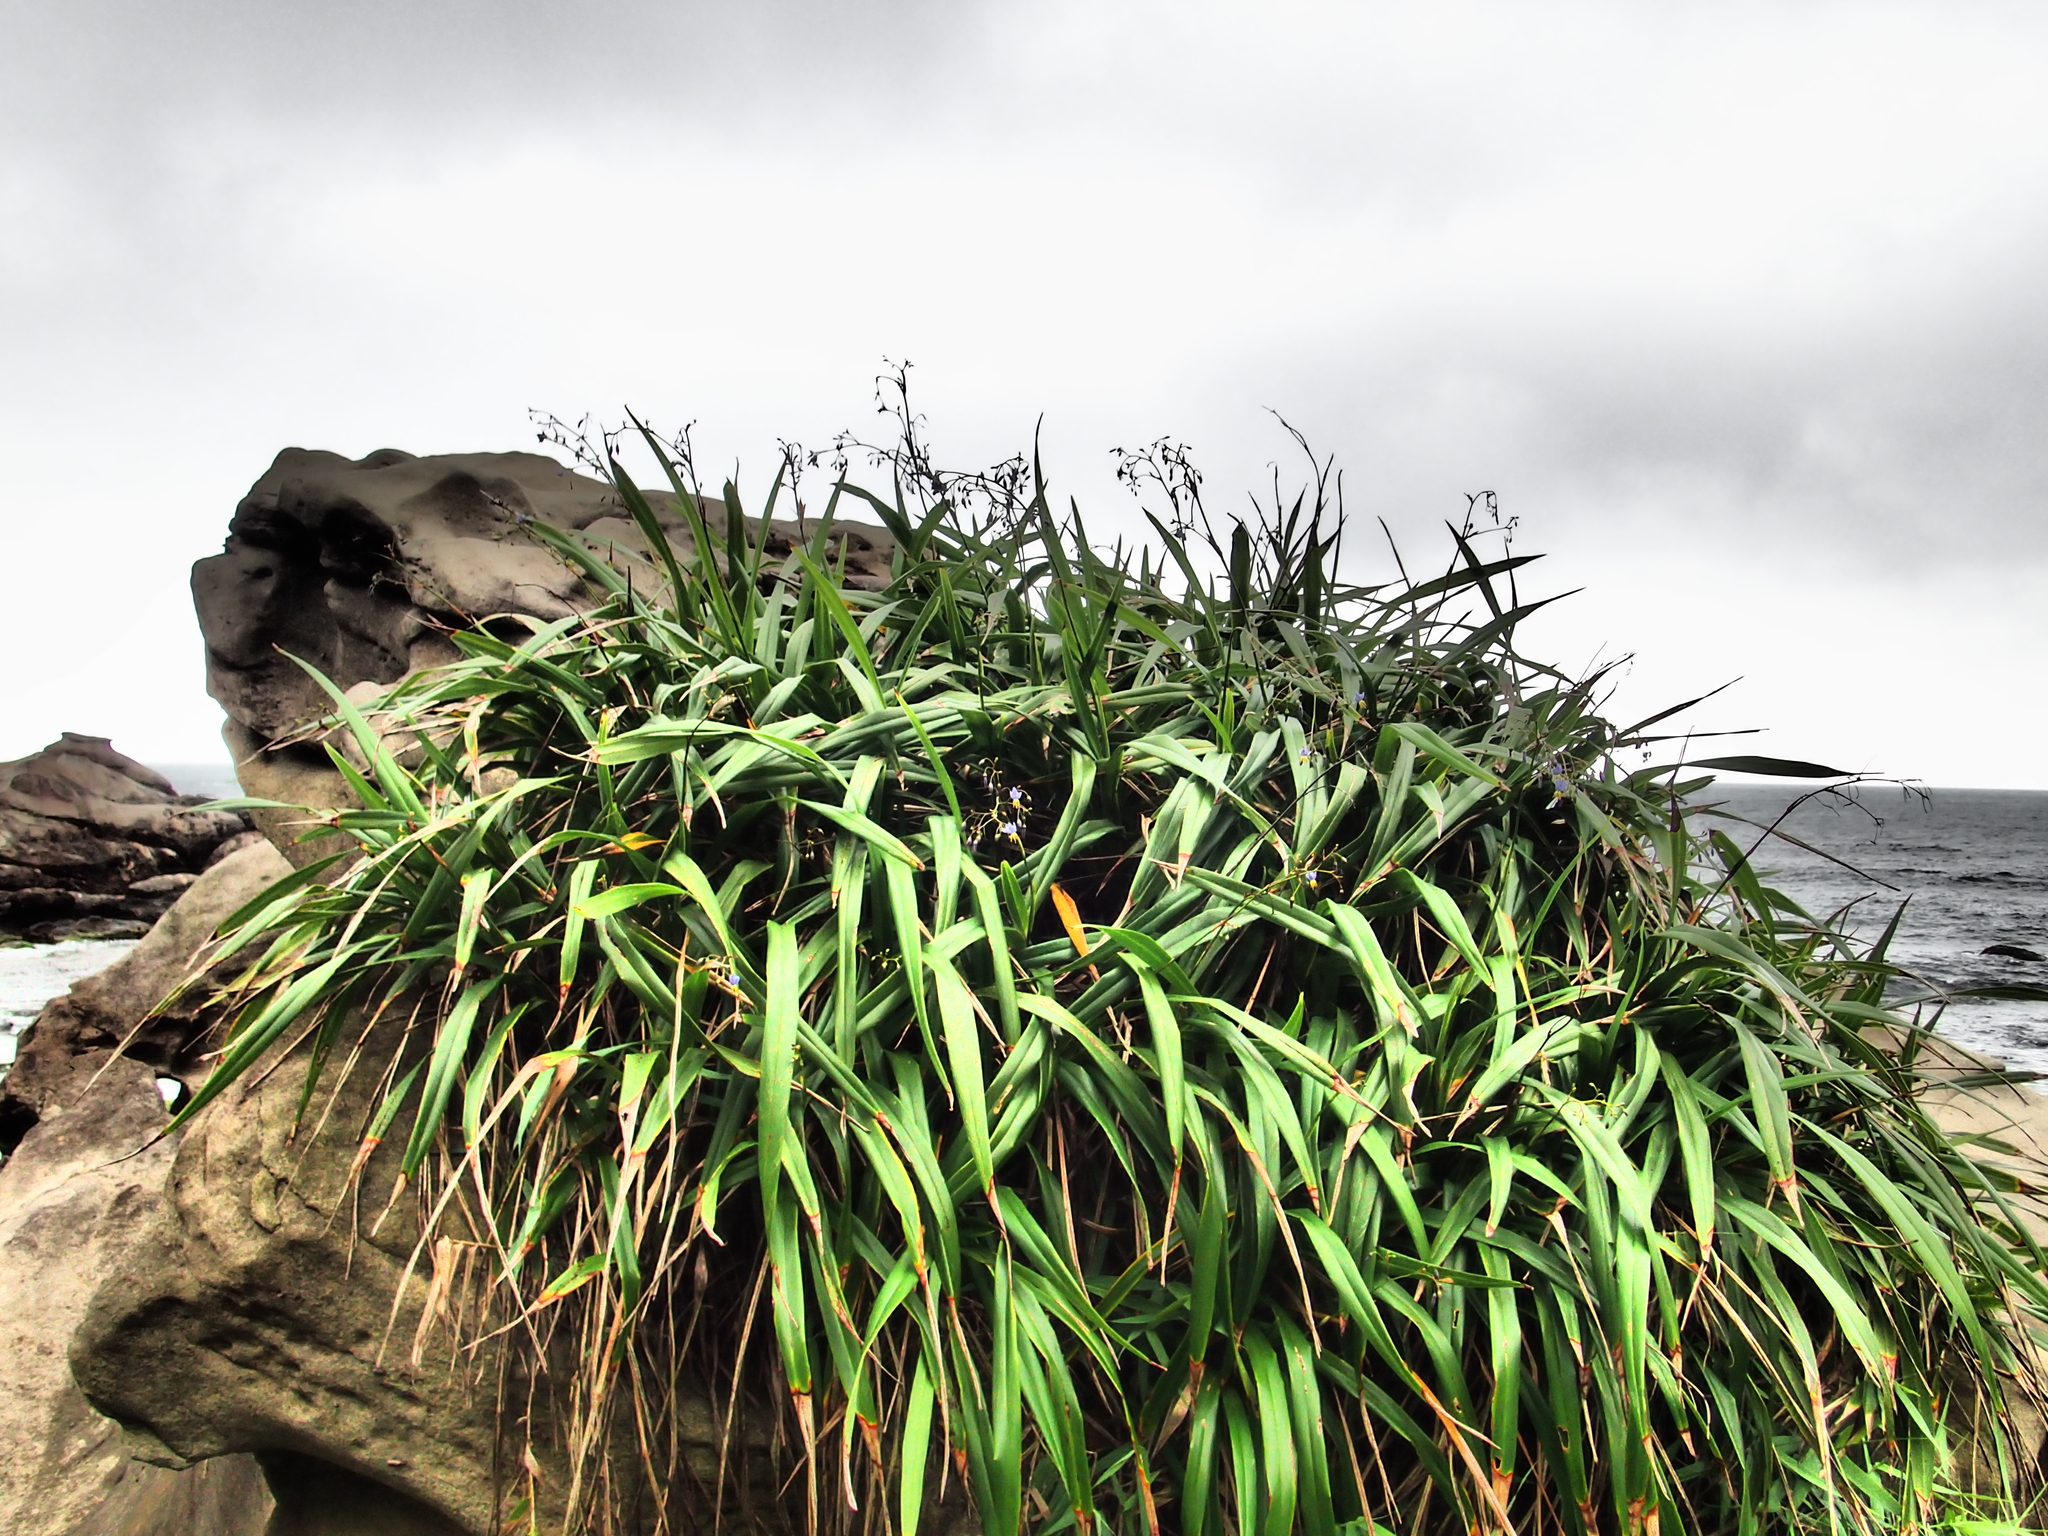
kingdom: Plantae
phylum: Tracheophyta
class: Liliopsida
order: Asparagales
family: Asphodelaceae
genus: Dianella
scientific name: Dianella ensifolia
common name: New zealand lilyplant
